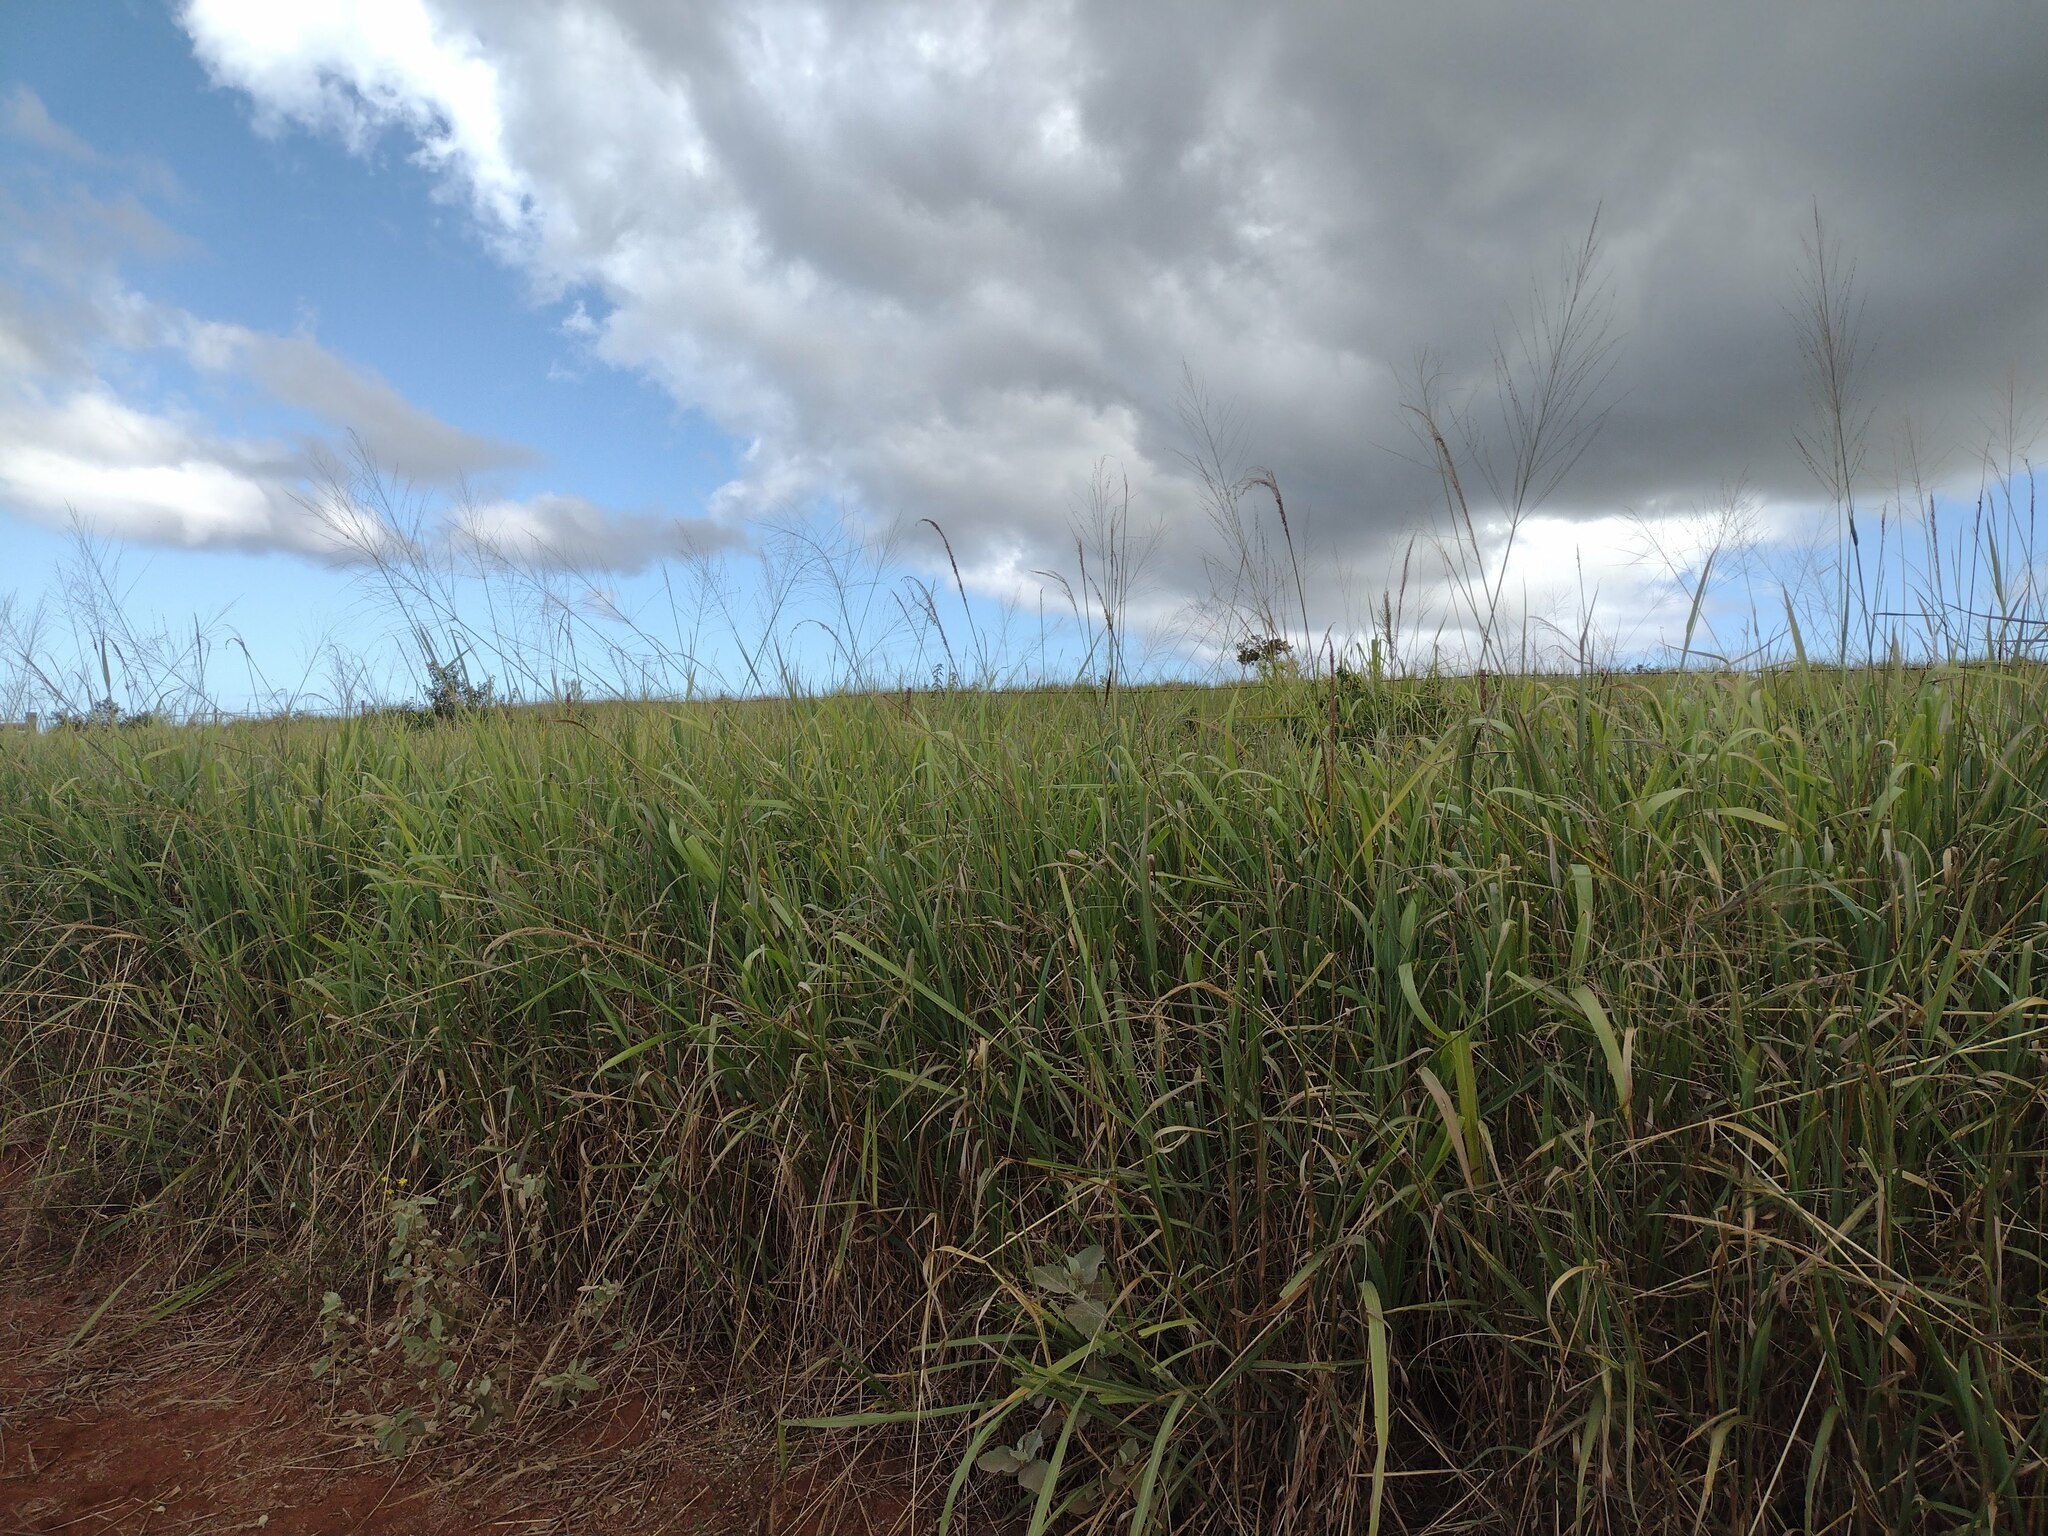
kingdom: Plantae
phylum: Tracheophyta
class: Liliopsida
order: Poales
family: Poaceae
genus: Megathyrsus
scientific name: Megathyrsus maximus
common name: Guineagrass
